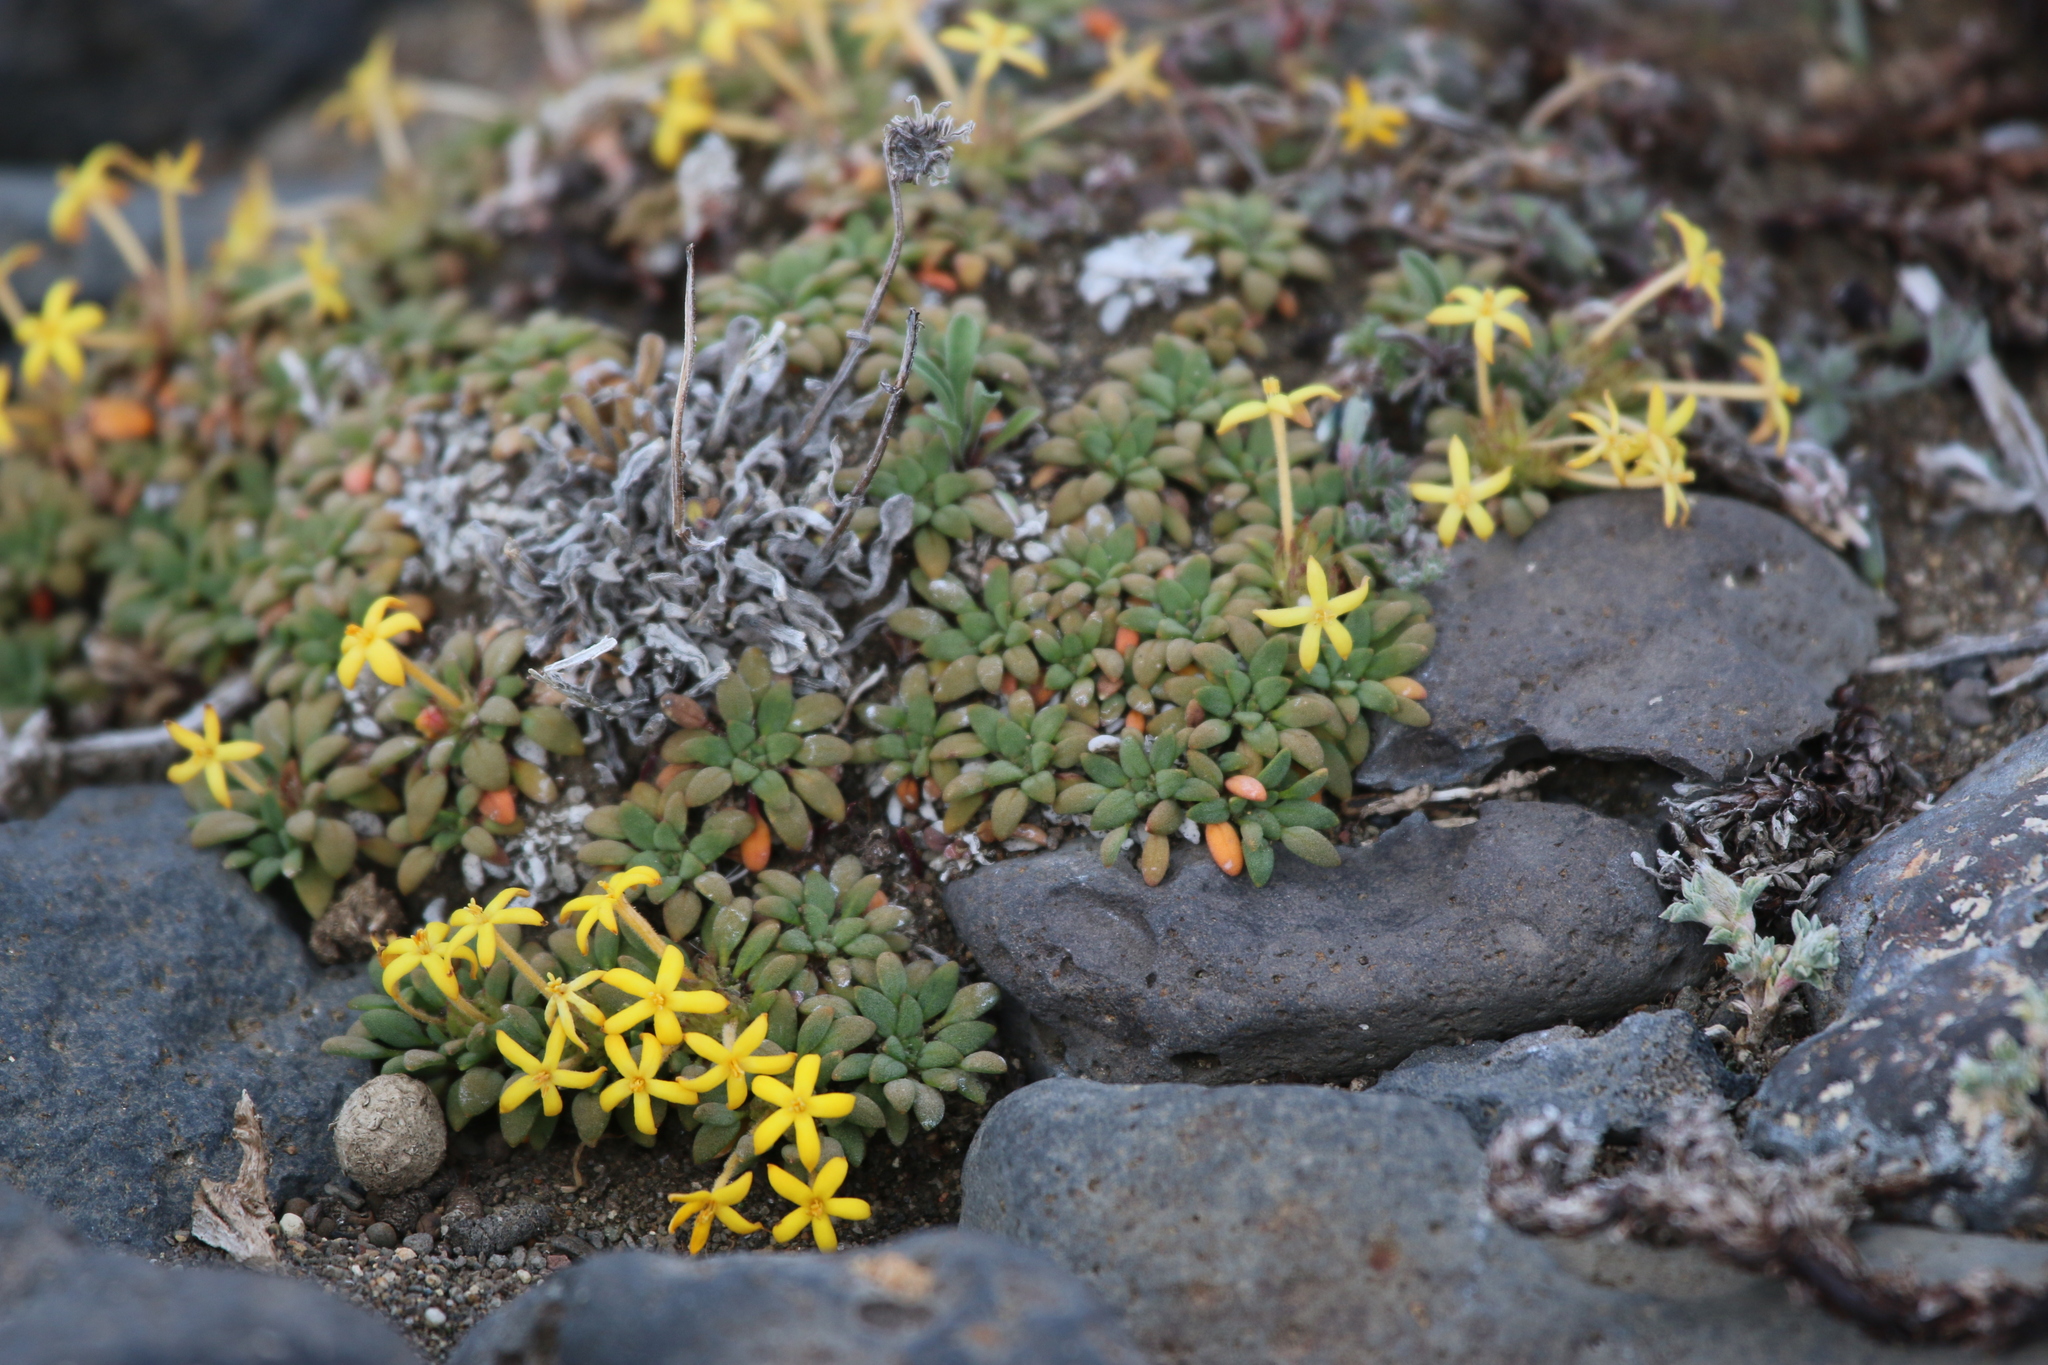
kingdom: Plantae
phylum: Tracheophyta
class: Magnoliopsida
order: Gentianales
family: Rubiaceae
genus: Oreopolus
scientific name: Oreopolus glacialis
